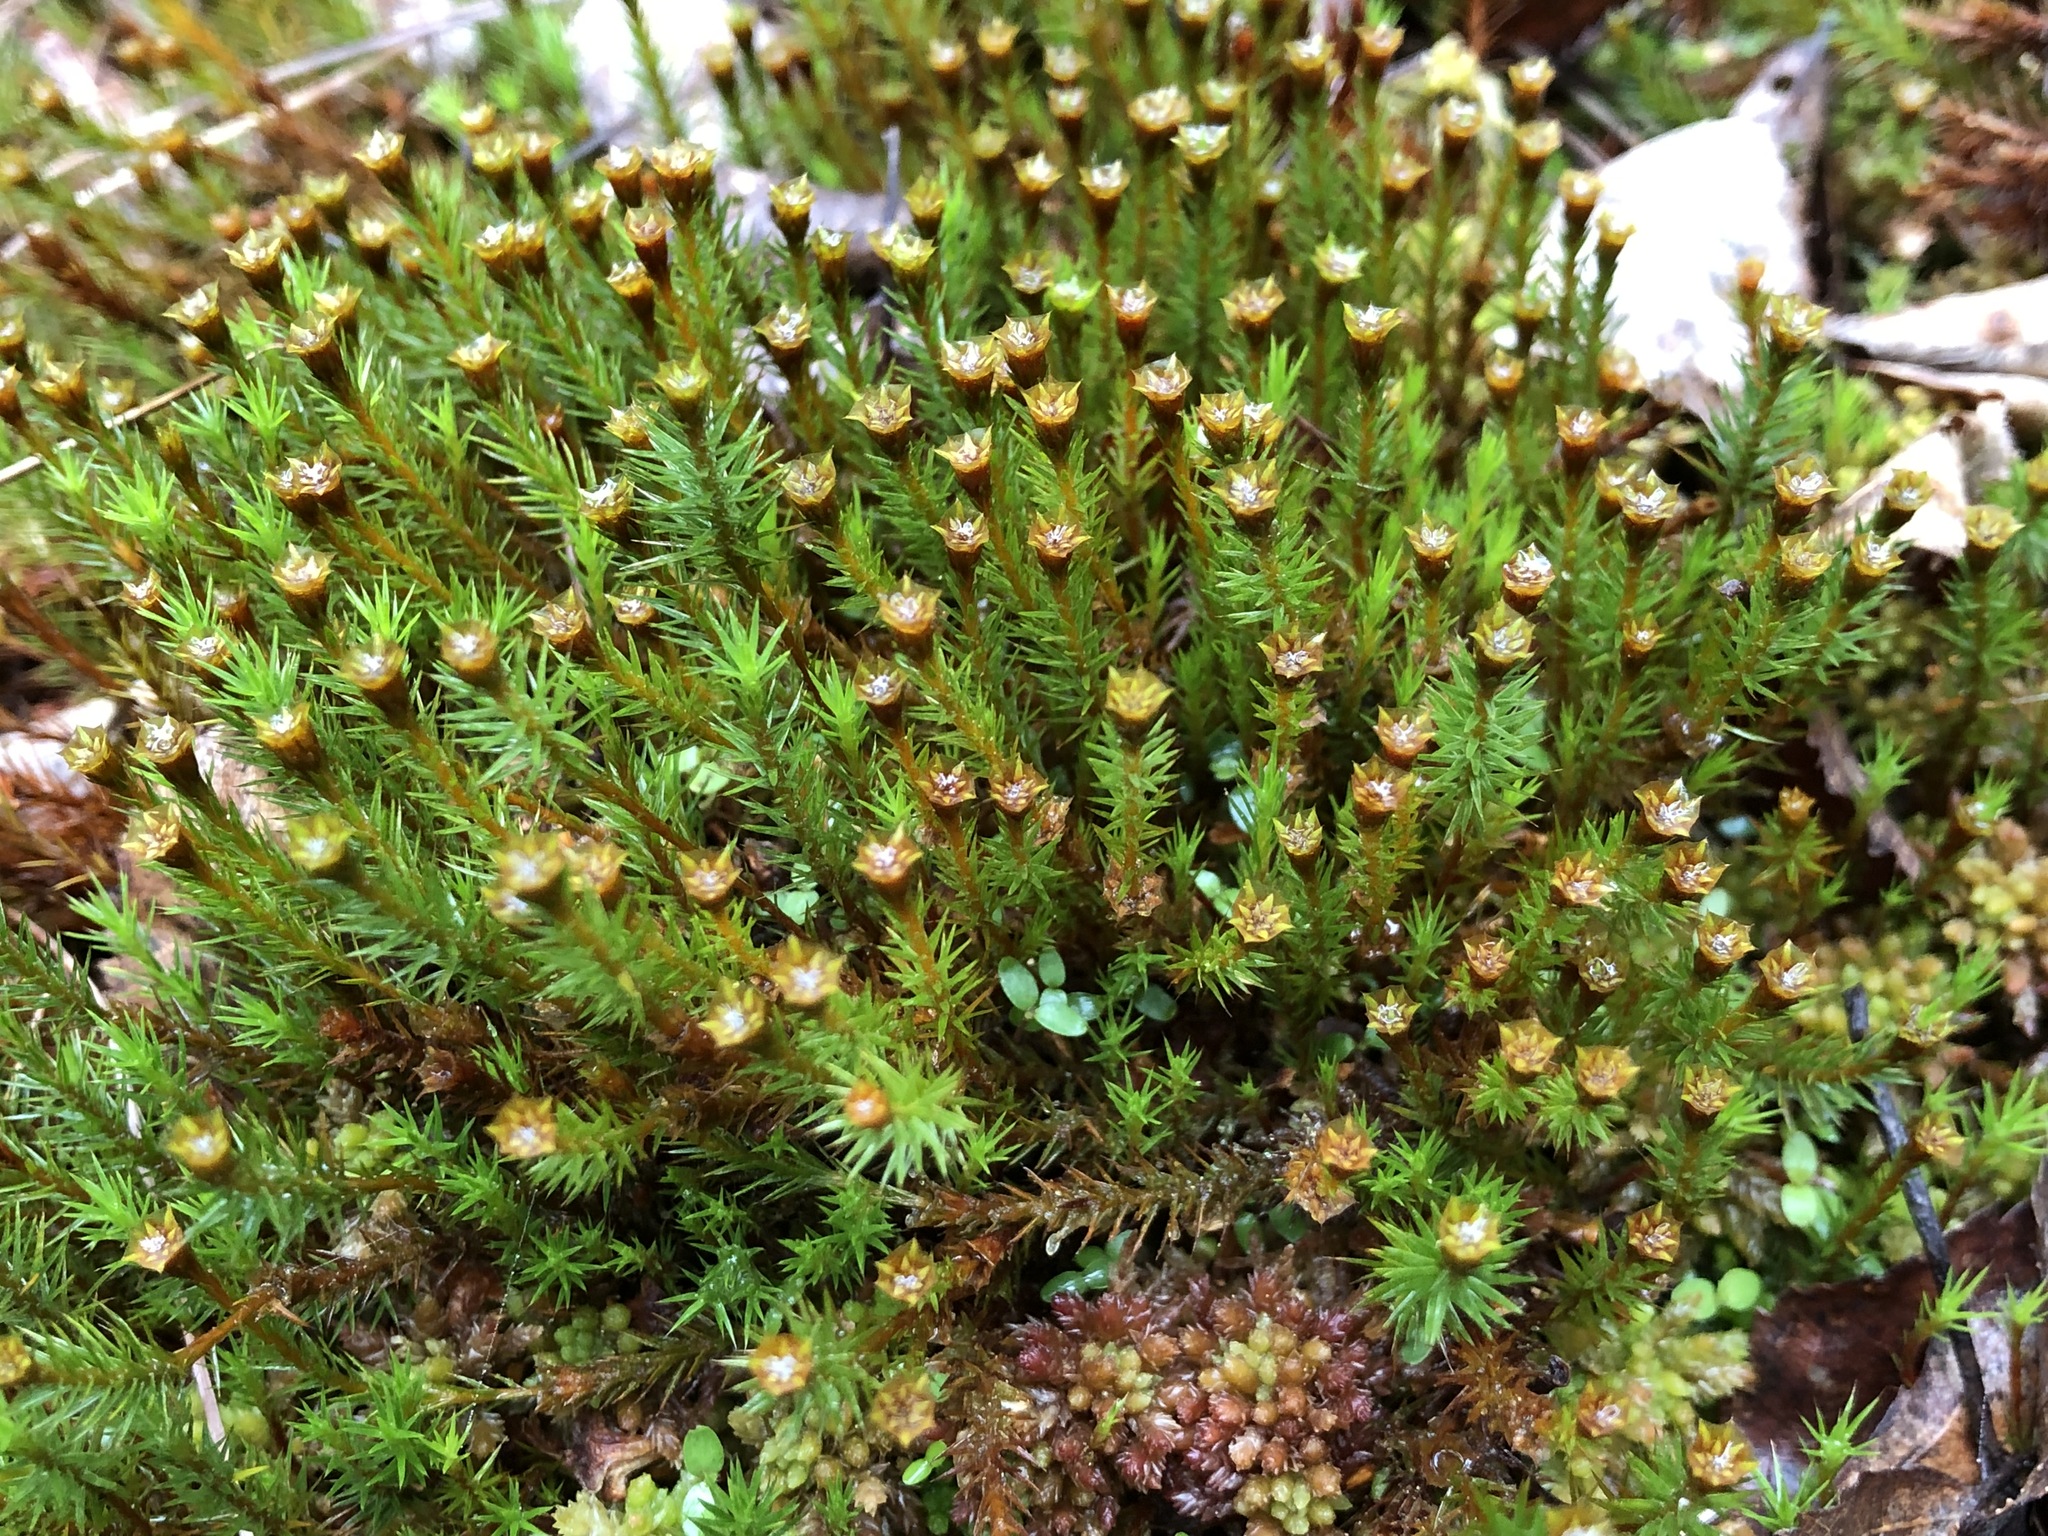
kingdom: Plantae
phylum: Bryophyta
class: Polytrichopsida
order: Polytrichales
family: Polytrichaceae
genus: Polytrichum
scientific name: Polytrichum strictum
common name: Bog haircap moss
